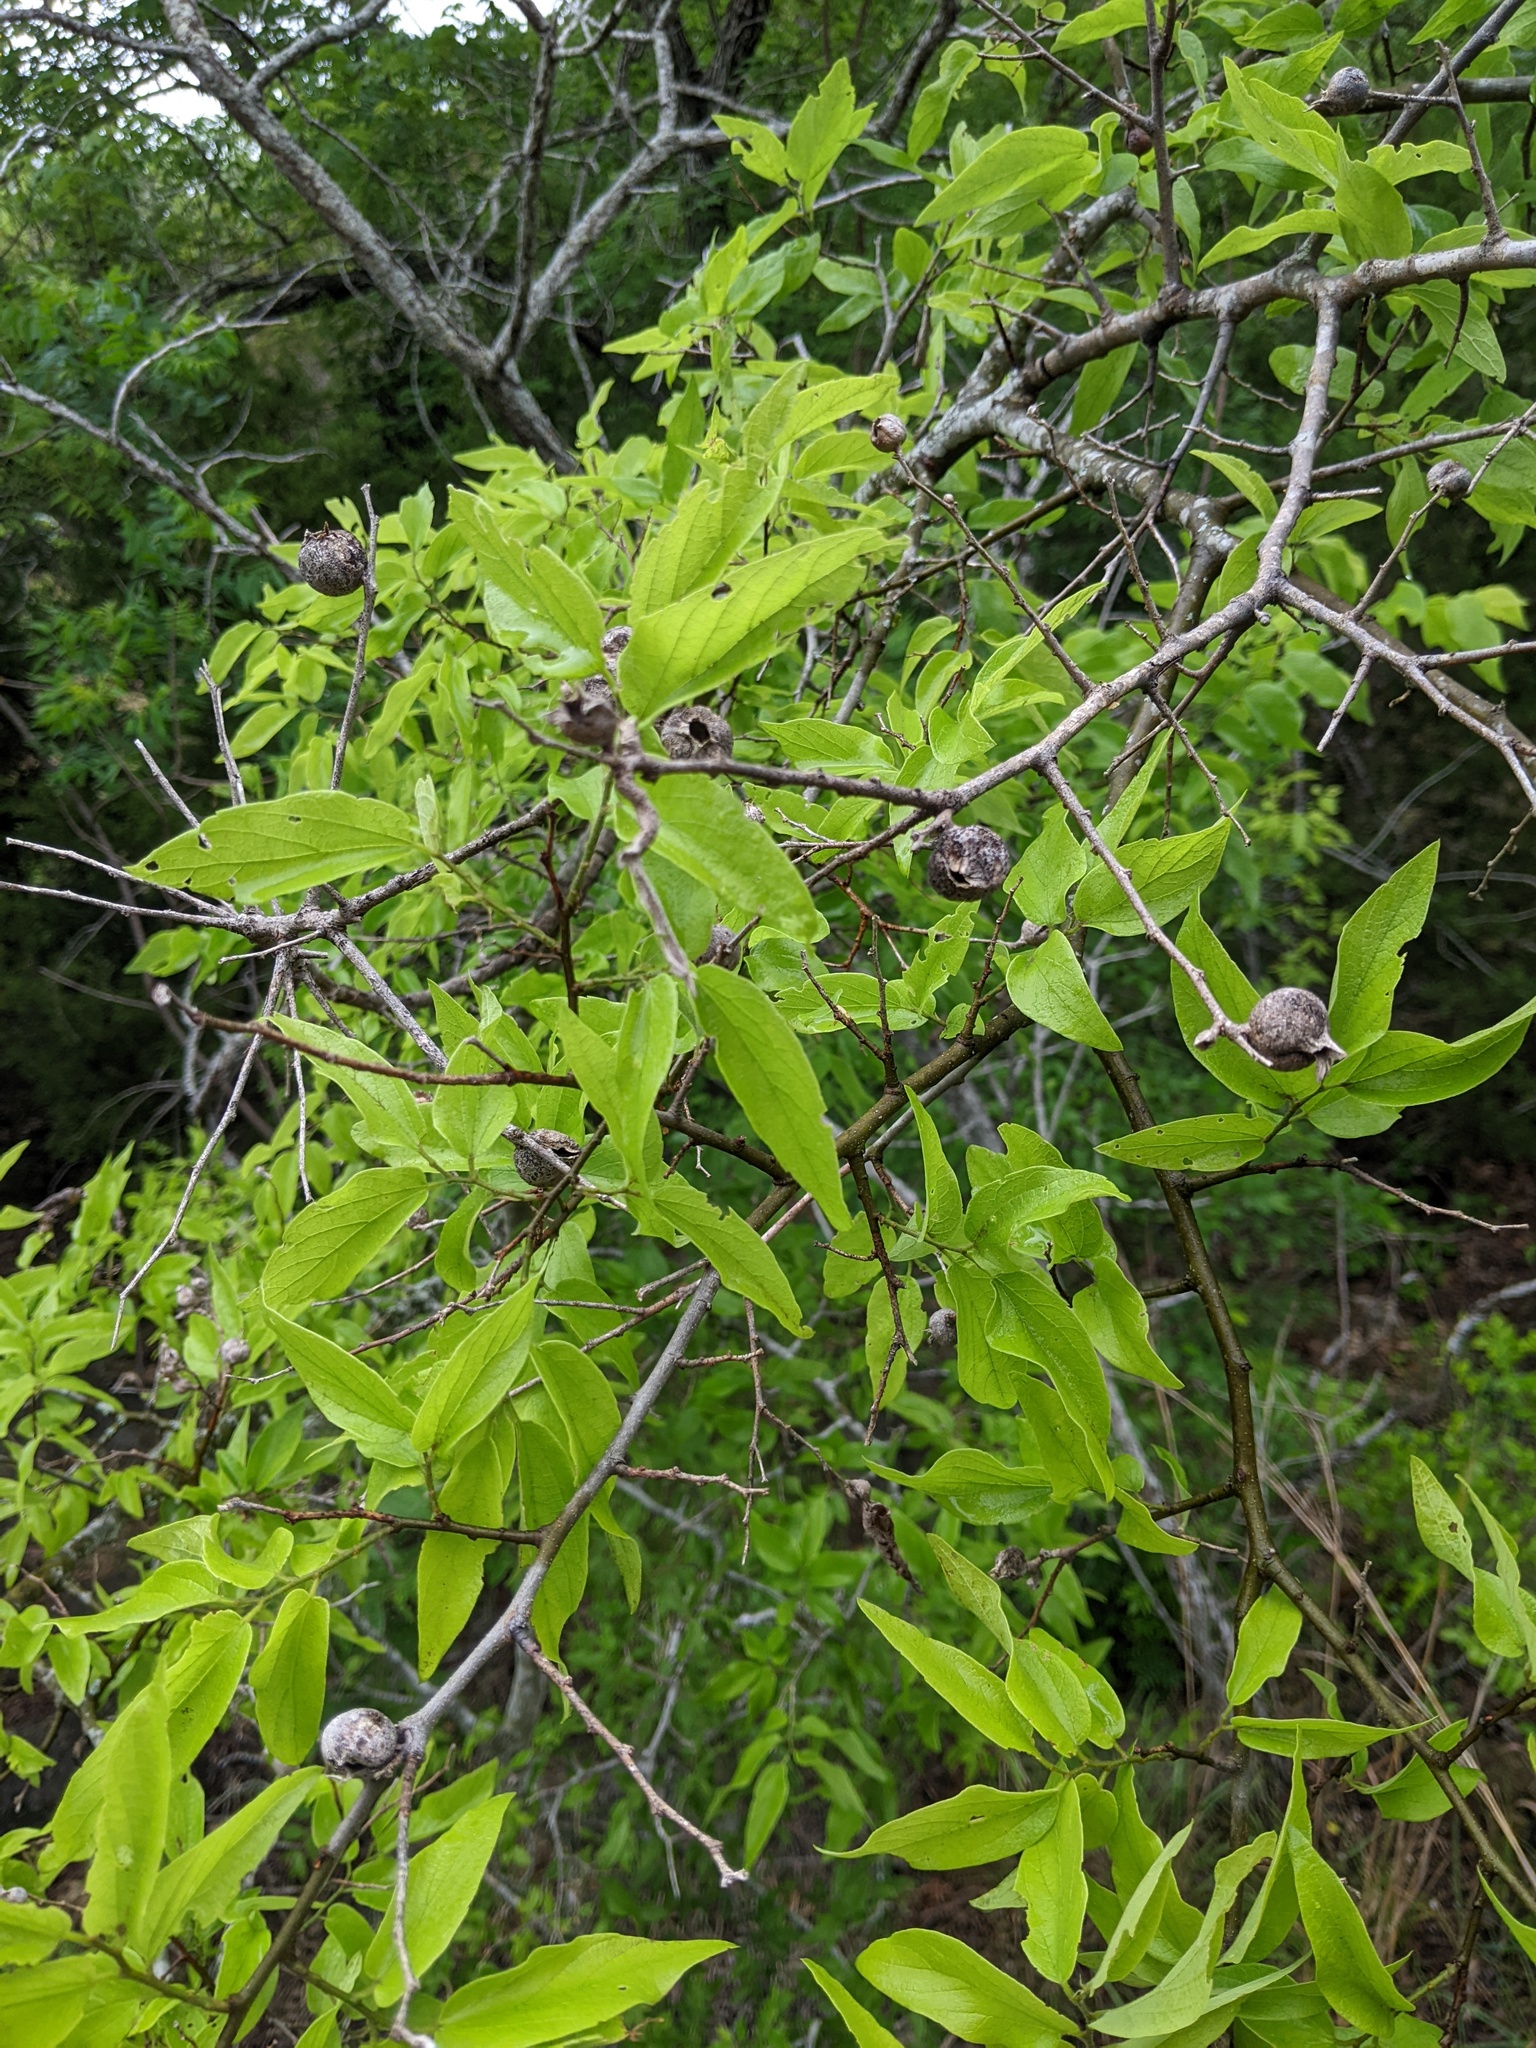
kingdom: Animalia
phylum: Arthropoda
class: Insecta
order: Hemiptera
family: Aphalaridae
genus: Pachypsylla
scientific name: Pachypsylla venusta
